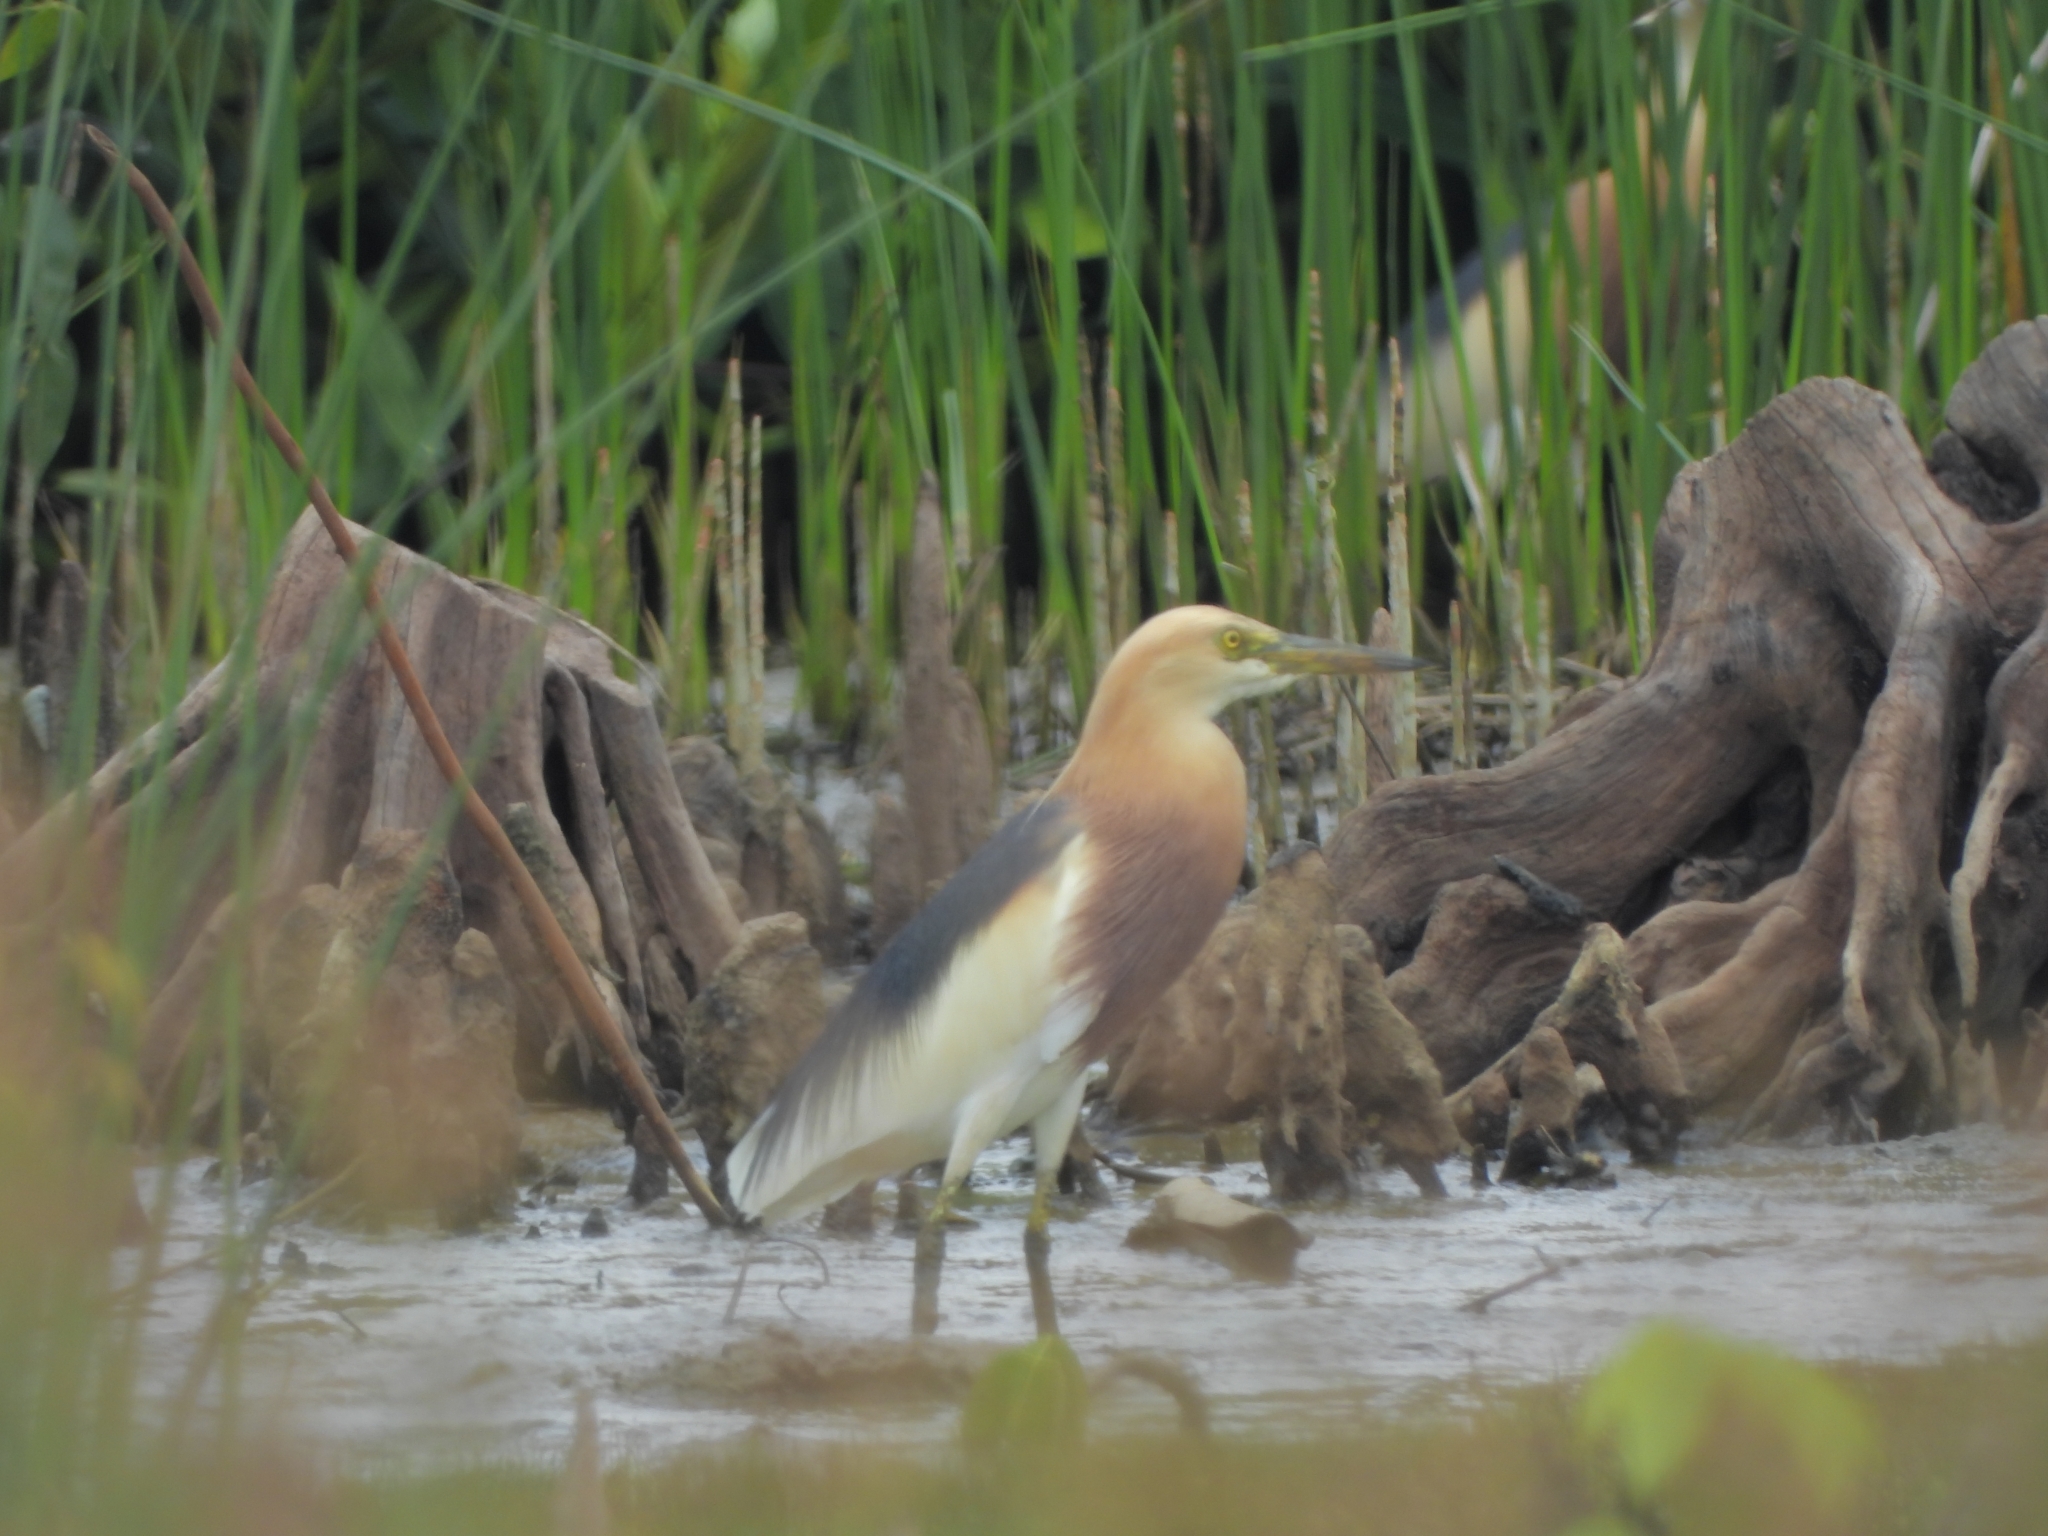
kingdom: Animalia
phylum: Chordata
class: Aves
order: Pelecaniformes
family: Ardeidae
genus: Ardeola
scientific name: Ardeola speciosa
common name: Javan pond heron
